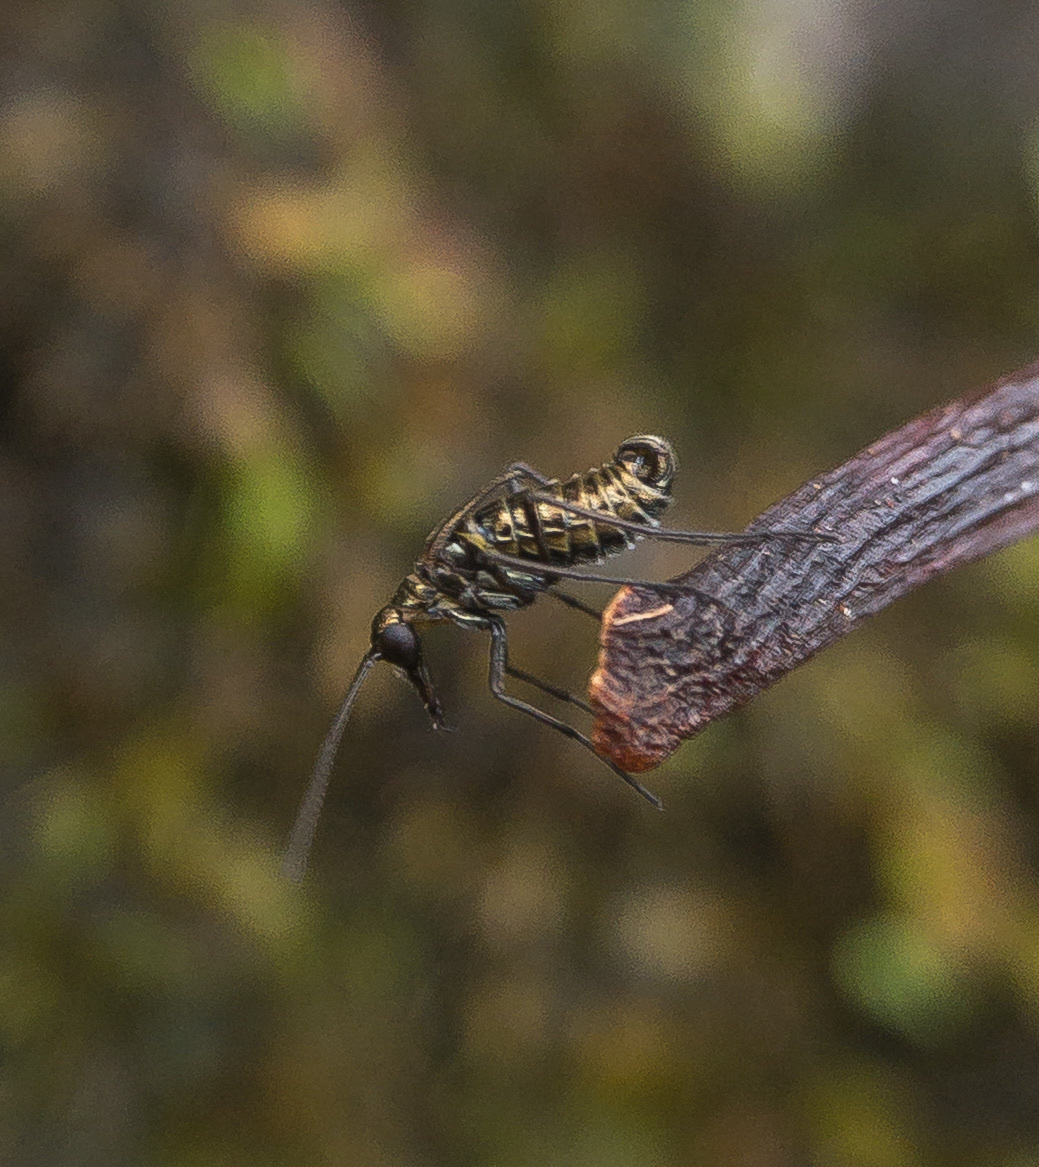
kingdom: Animalia
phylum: Arthropoda
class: Insecta
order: Mecoptera
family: Boreidae
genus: Boreus
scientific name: Boreus brumalis
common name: Mid-winter boreus
